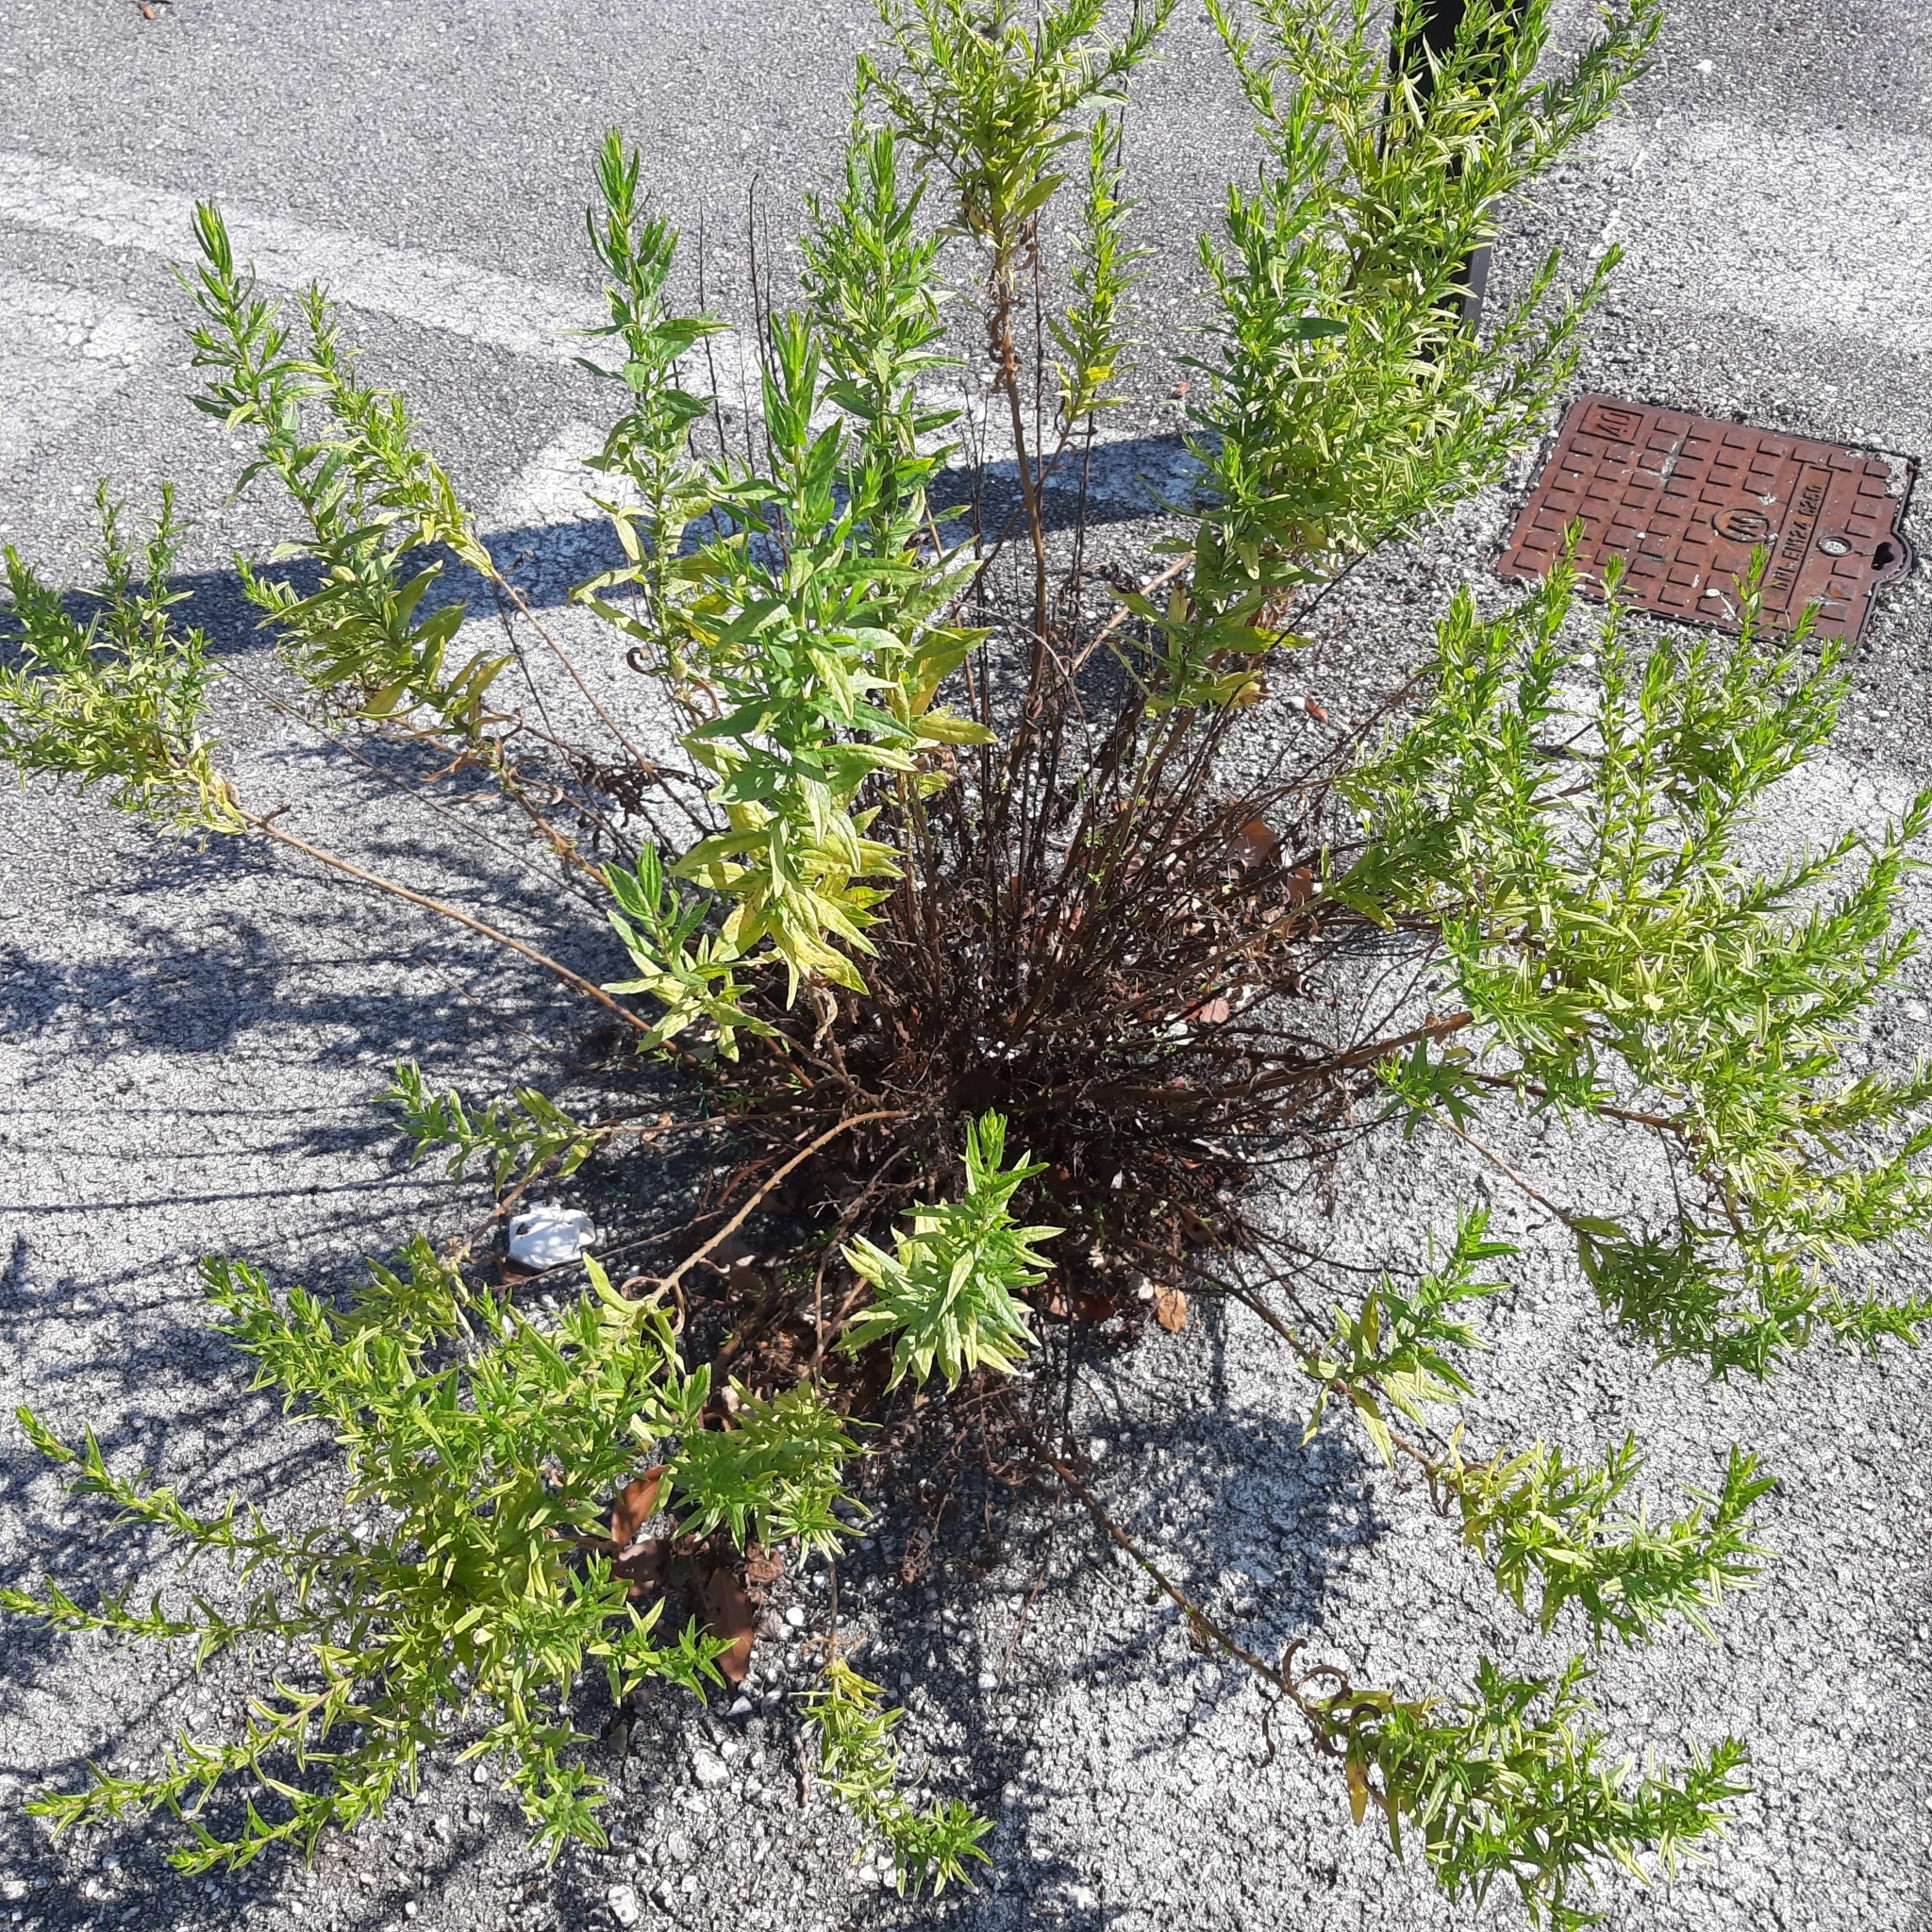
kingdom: Plantae
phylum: Tracheophyta
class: Magnoliopsida
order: Asterales
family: Asteraceae
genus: Dittrichia
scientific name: Dittrichia viscosa
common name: Woody fleabane
